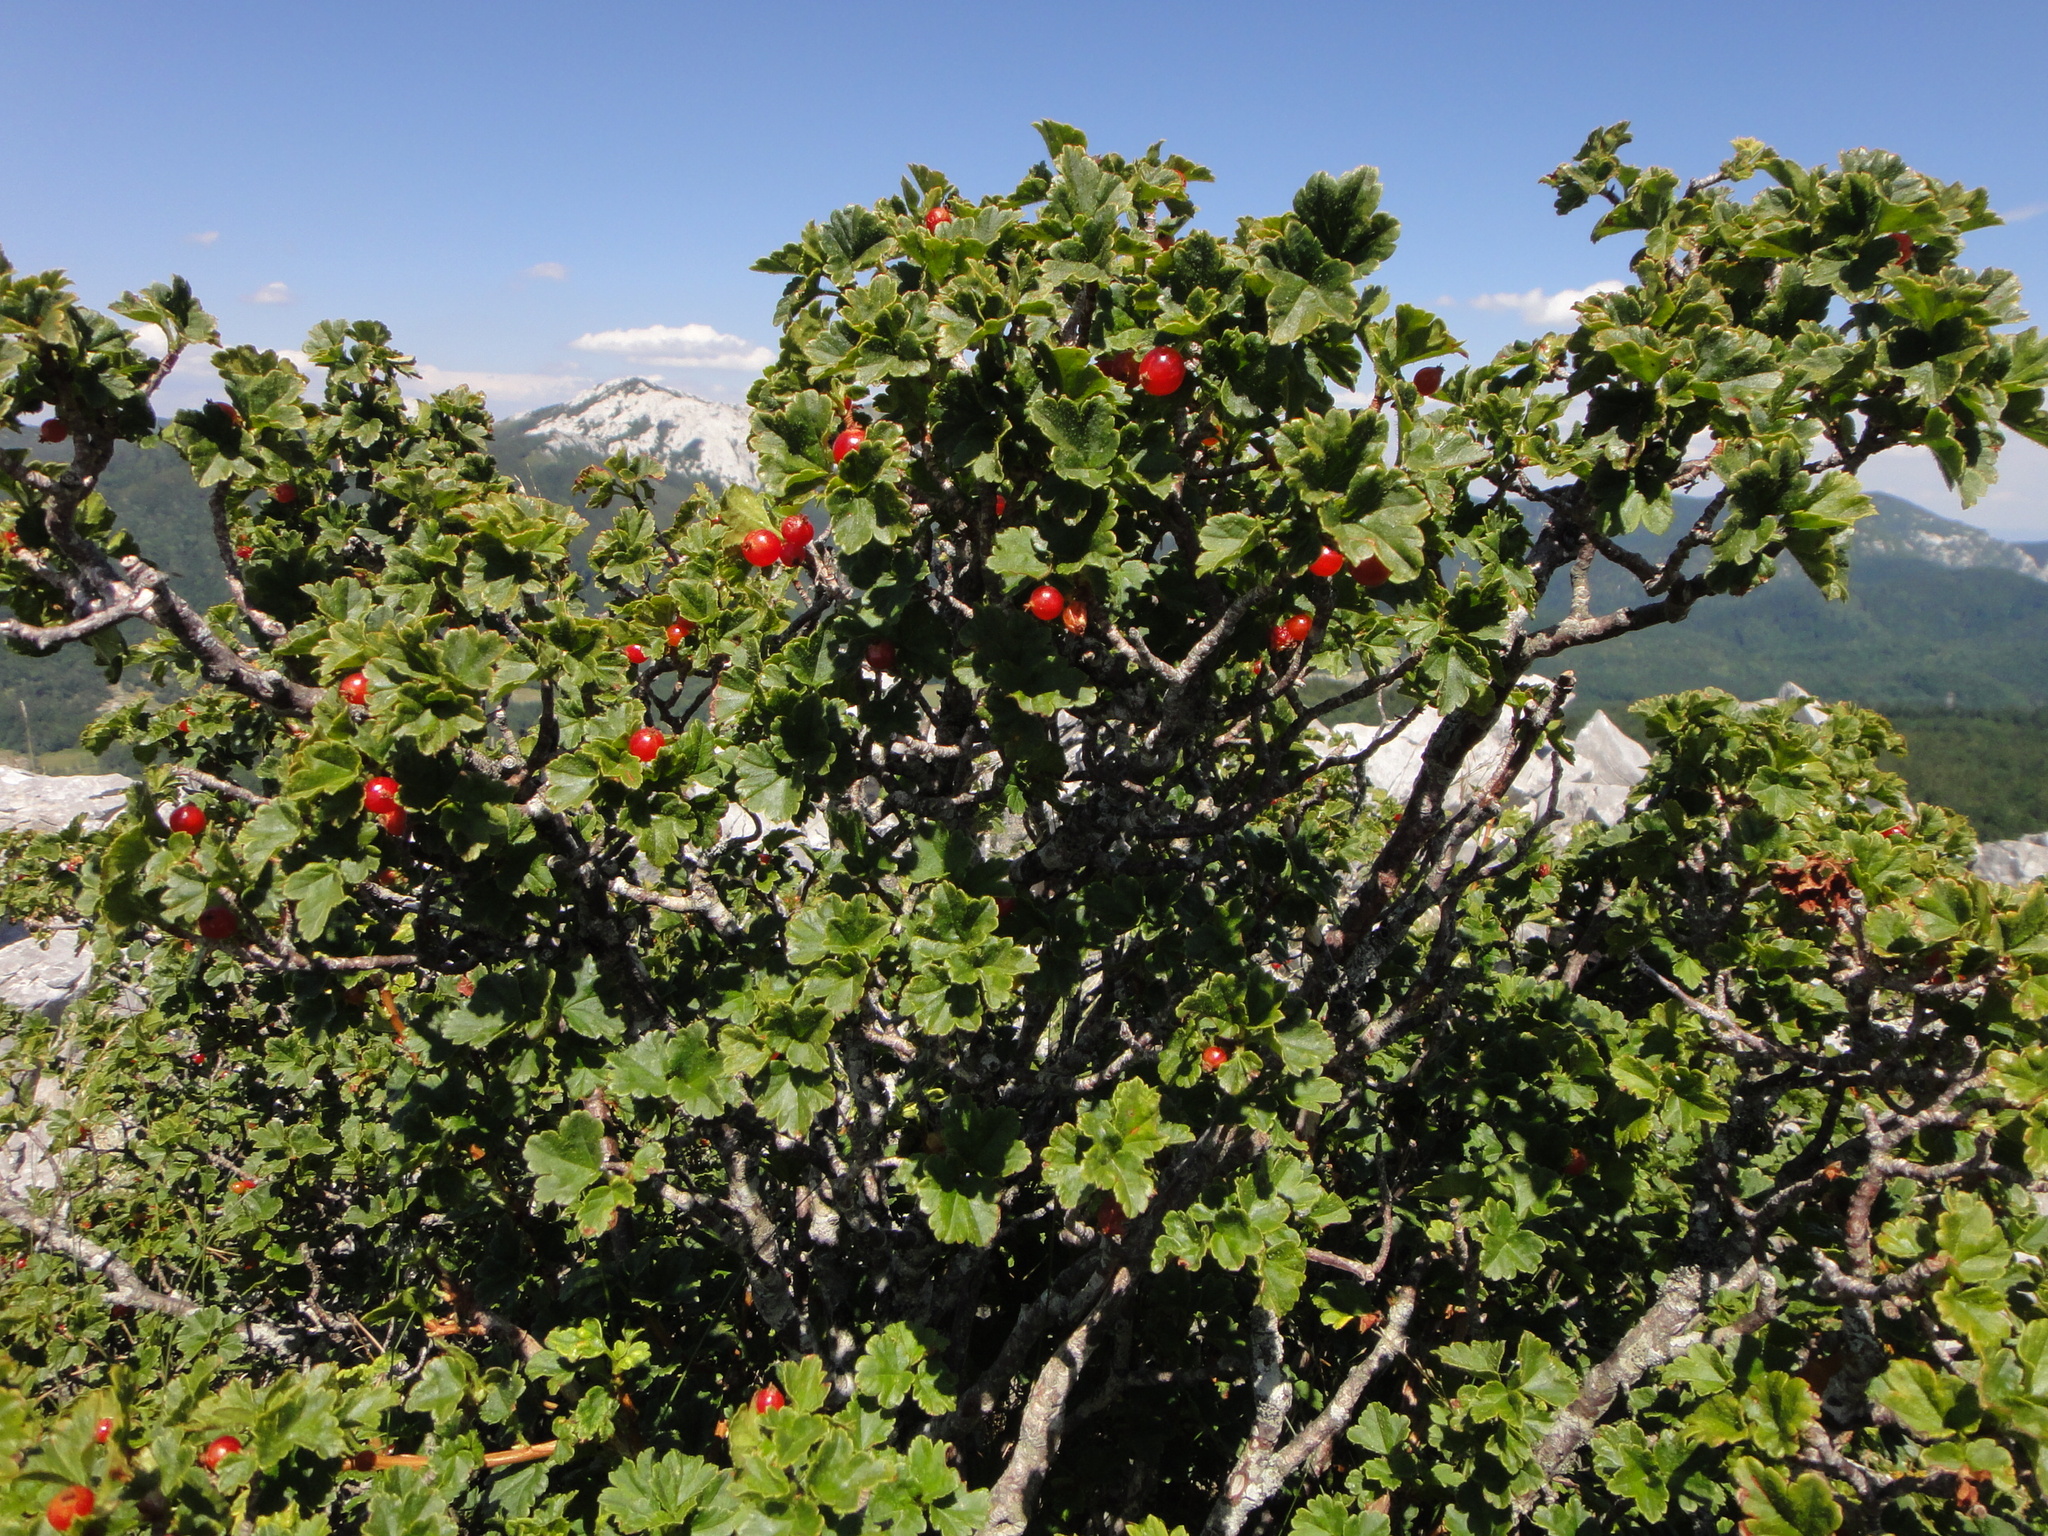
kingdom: Plantae
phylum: Tracheophyta
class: Magnoliopsida
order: Saxifragales
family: Grossulariaceae
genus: Ribes
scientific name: Ribes alpinum
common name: Alpine currant
